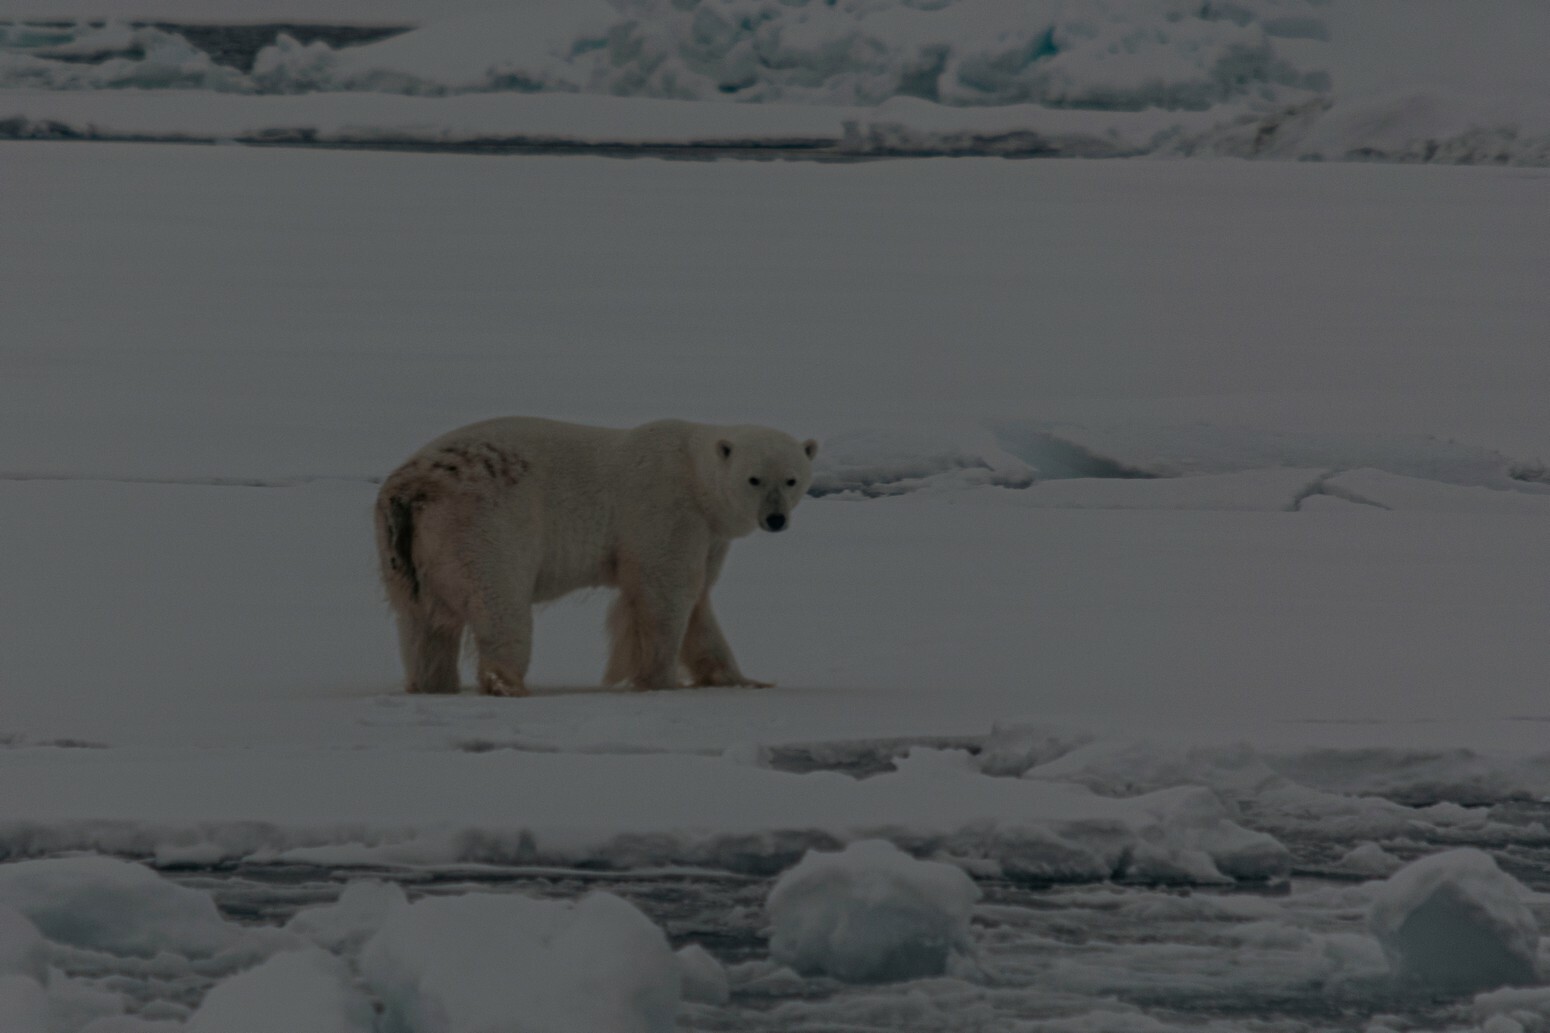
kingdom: Animalia
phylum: Chordata
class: Mammalia
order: Carnivora
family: Ursidae
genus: Ursus
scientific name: Ursus maritimus
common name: Polar bear
